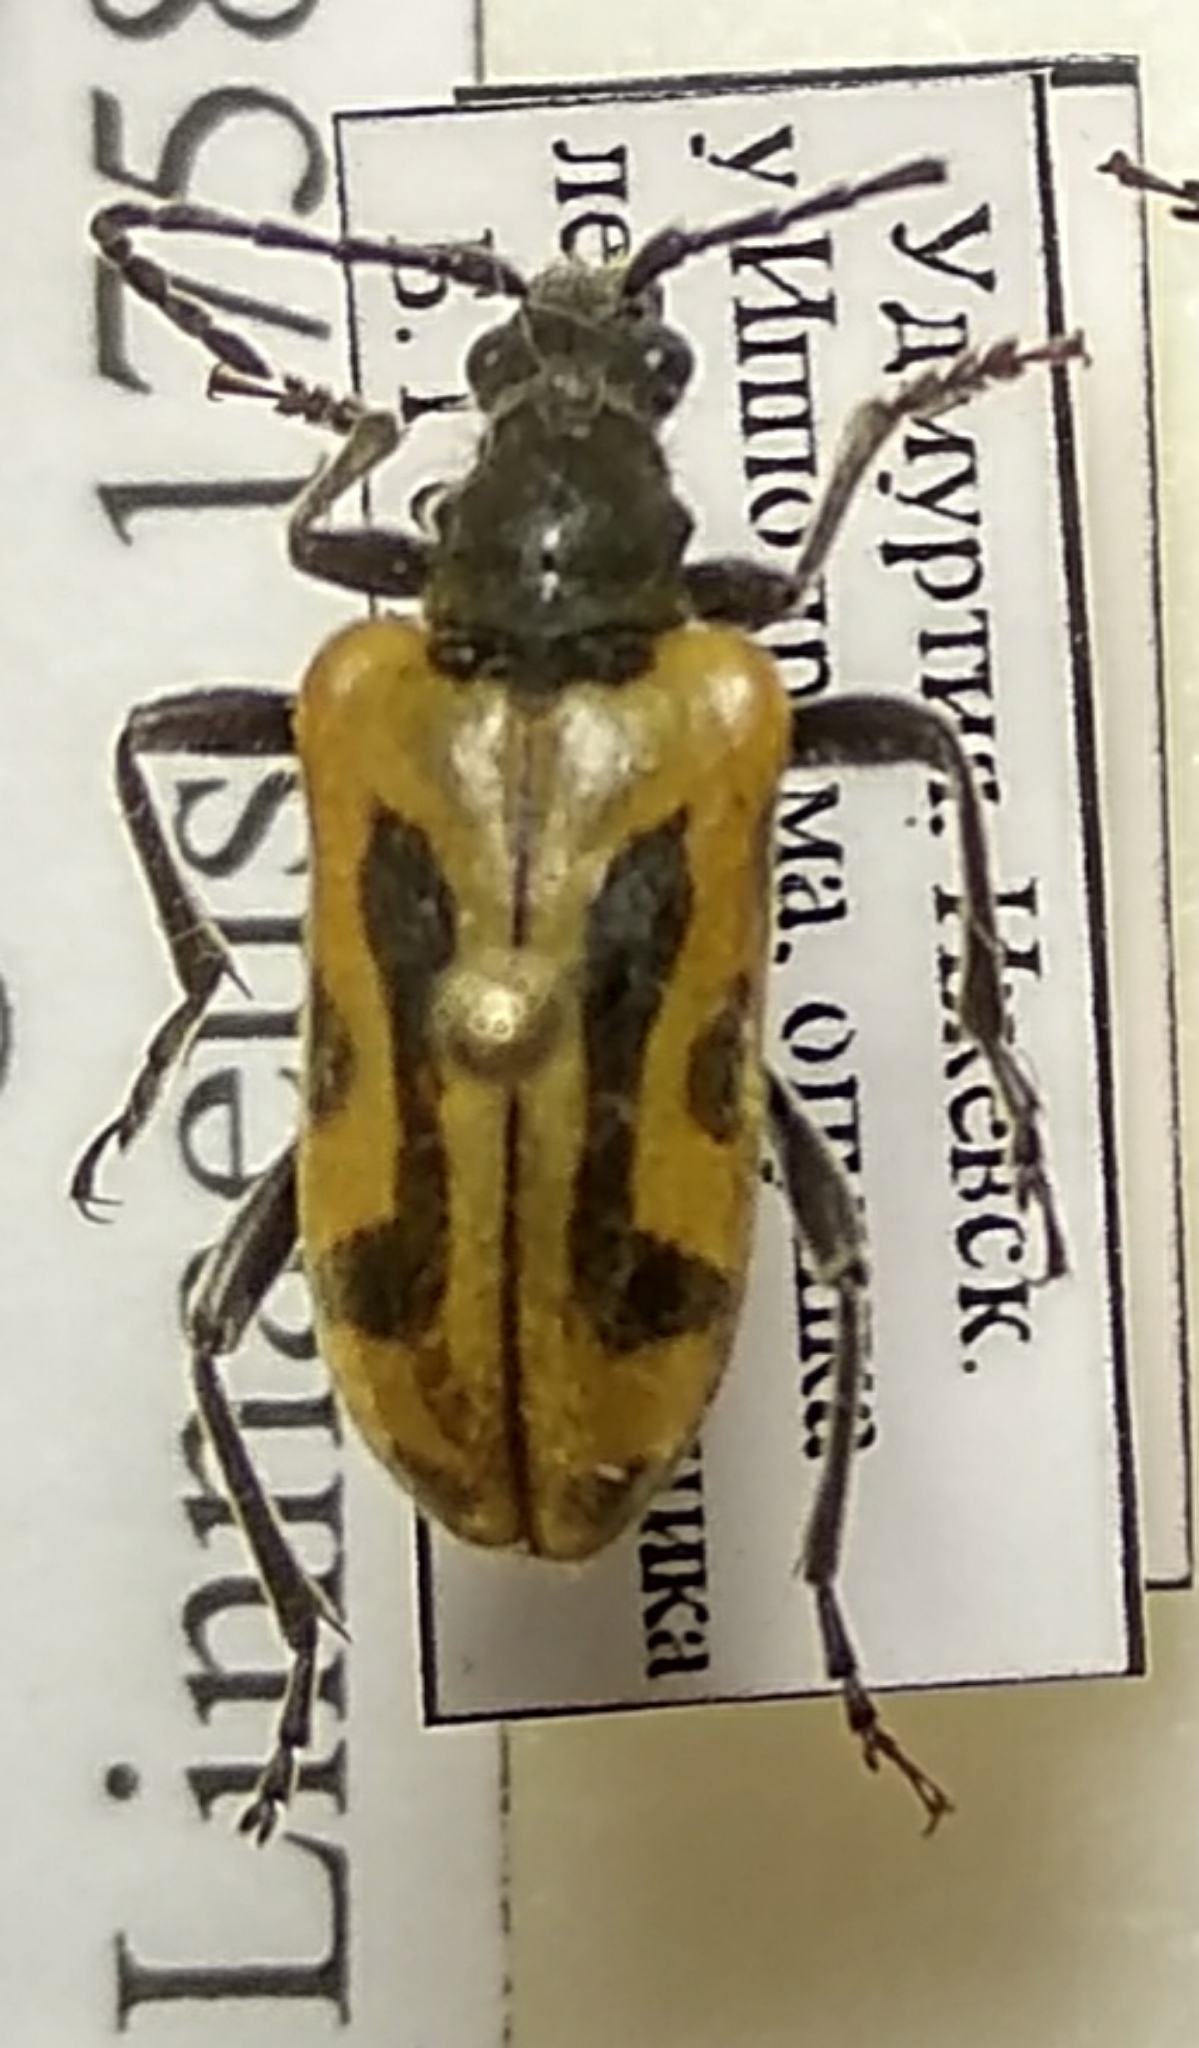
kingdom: Animalia
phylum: Arthropoda
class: Insecta
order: Coleoptera
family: Cerambycidae
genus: Brachyta
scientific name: Brachyta interrogationis
